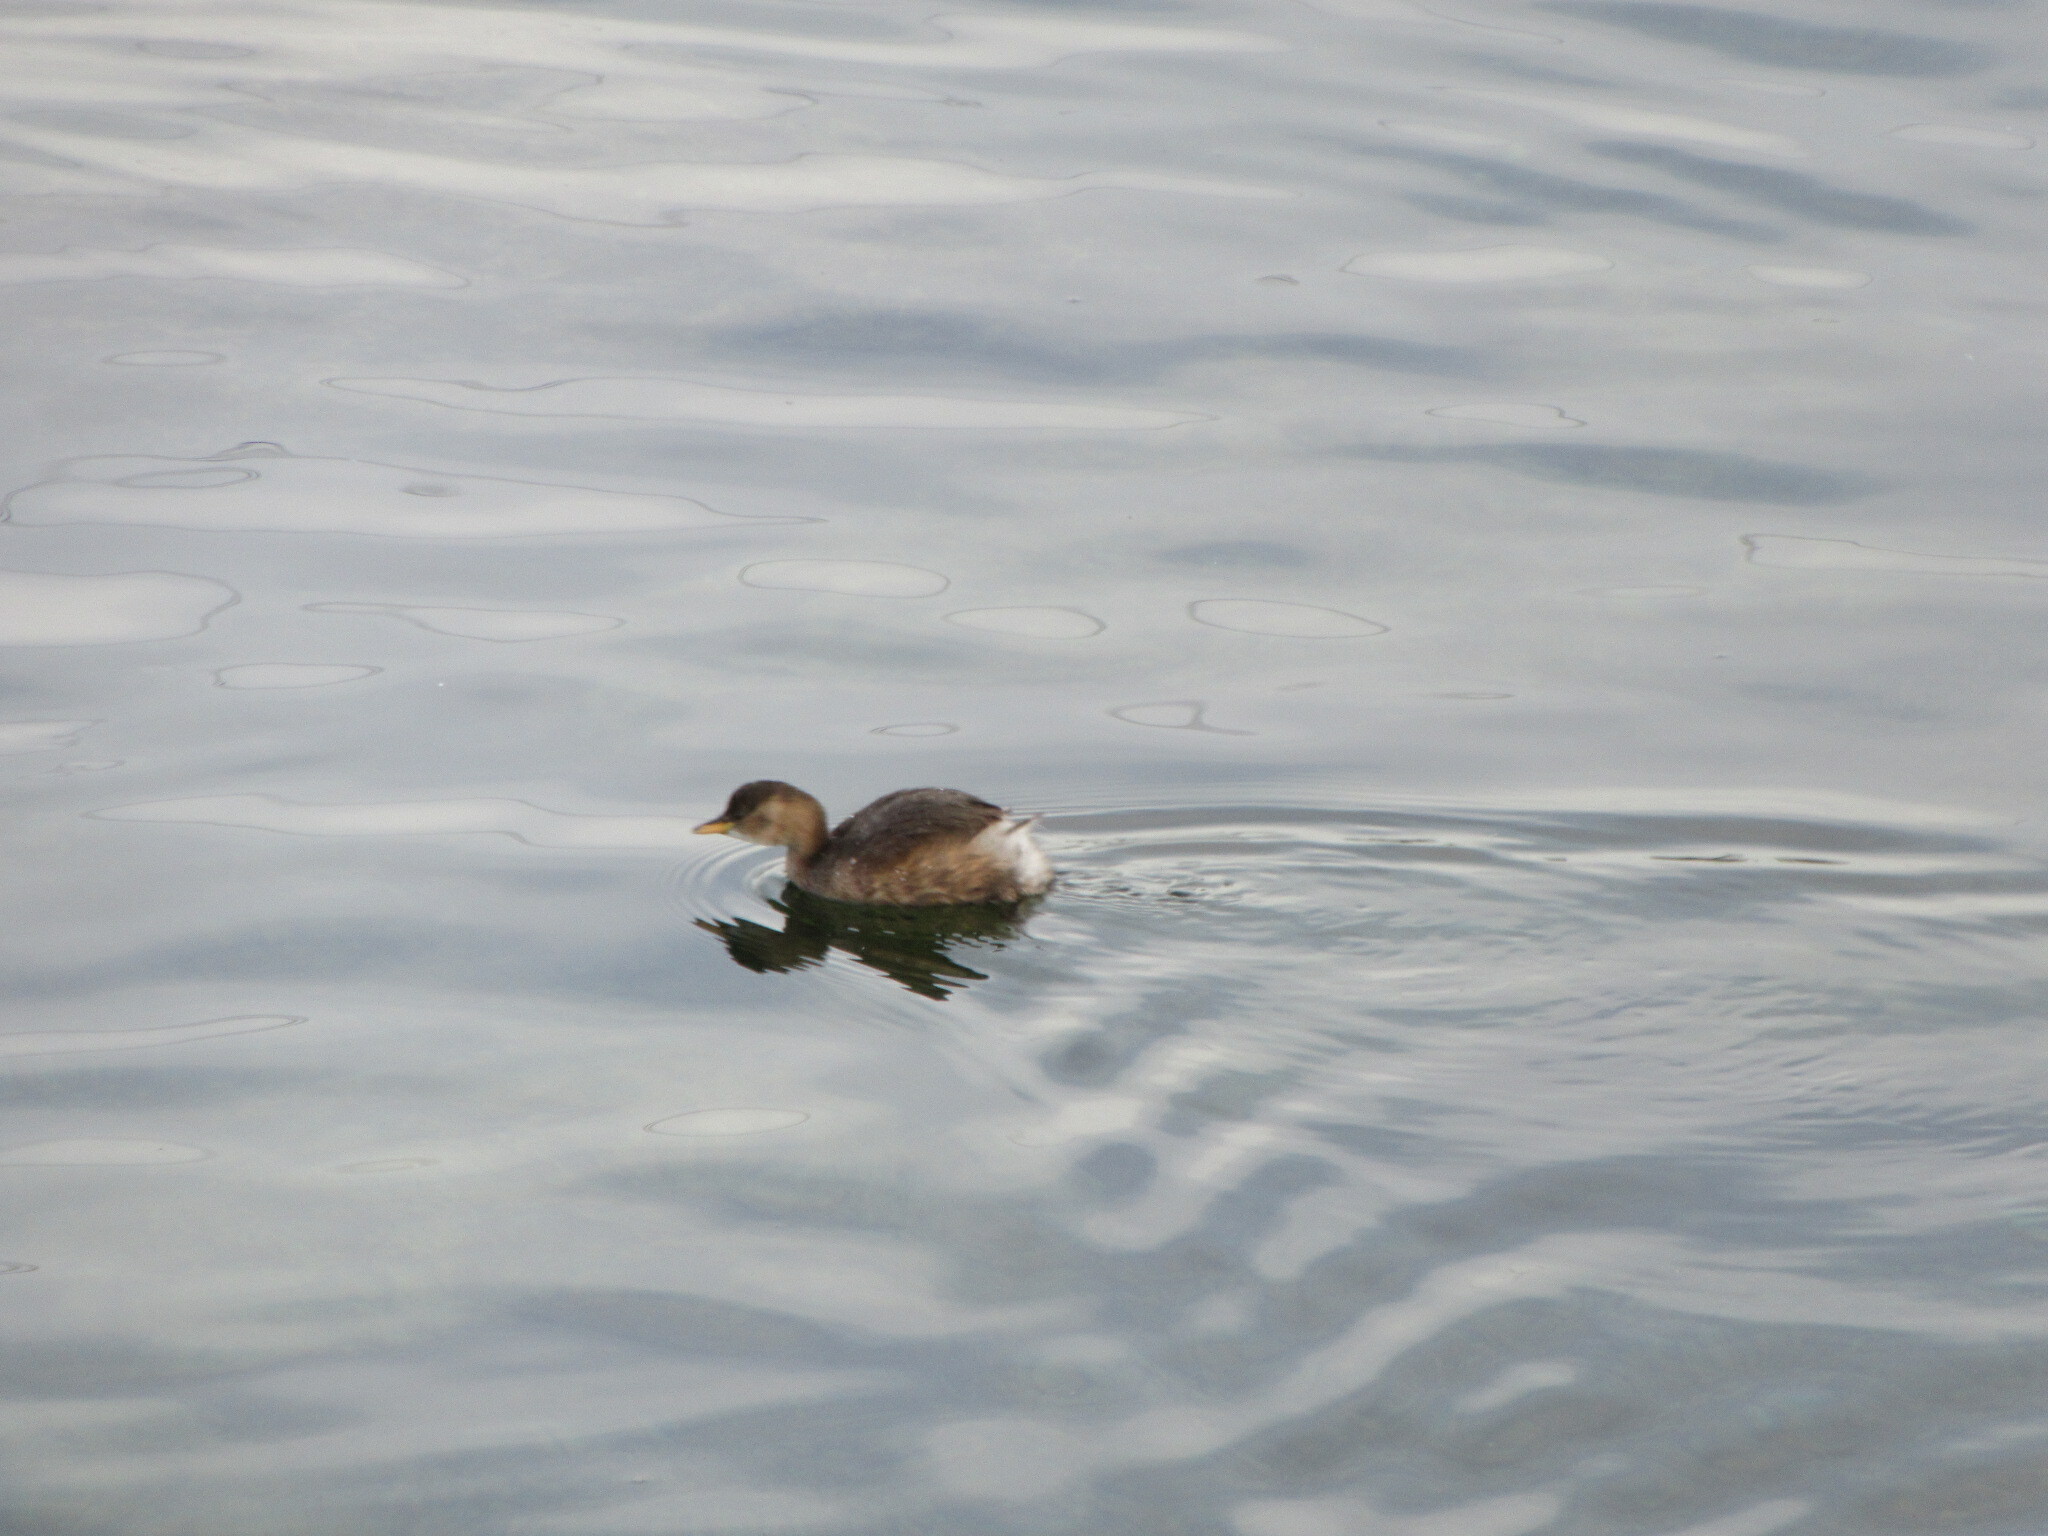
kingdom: Animalia
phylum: Chordata
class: Aves
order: Podicipediformes
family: Podicipedidae
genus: Tachybaptus
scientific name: Tachybaptus ruficollis
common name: Little grebe
